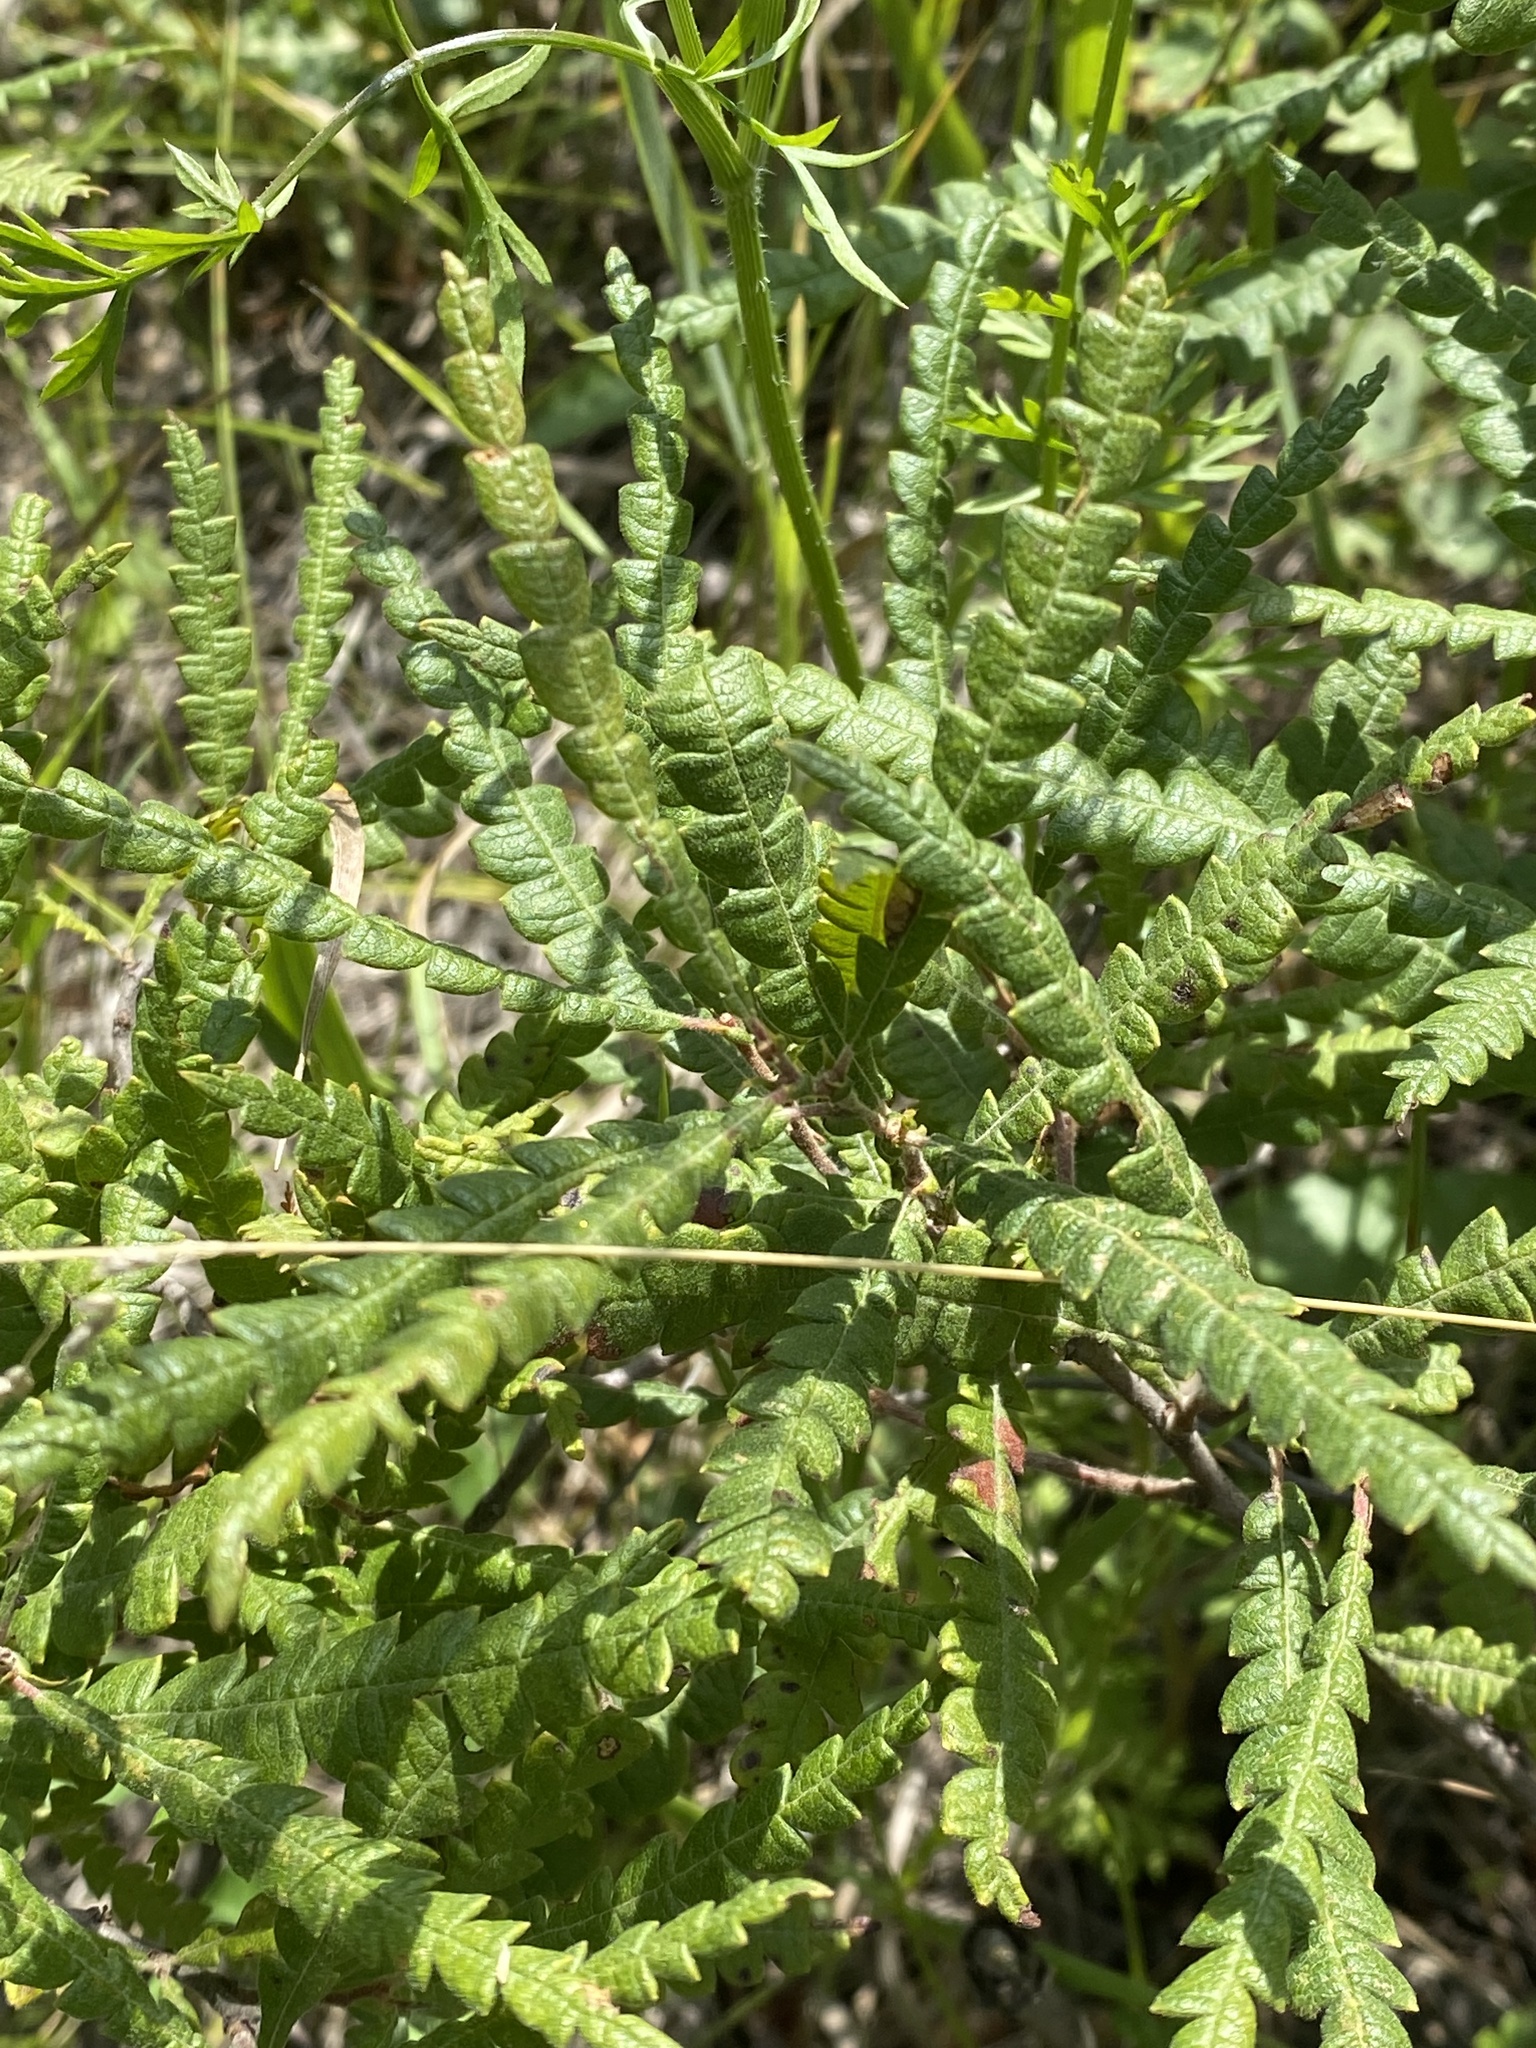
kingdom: Plantae
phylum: Tracheophyta
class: Magnoliopsida
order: Fagales
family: Myricaceae
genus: Comptonia
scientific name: Comptonia peregrina
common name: Sweet-fern
